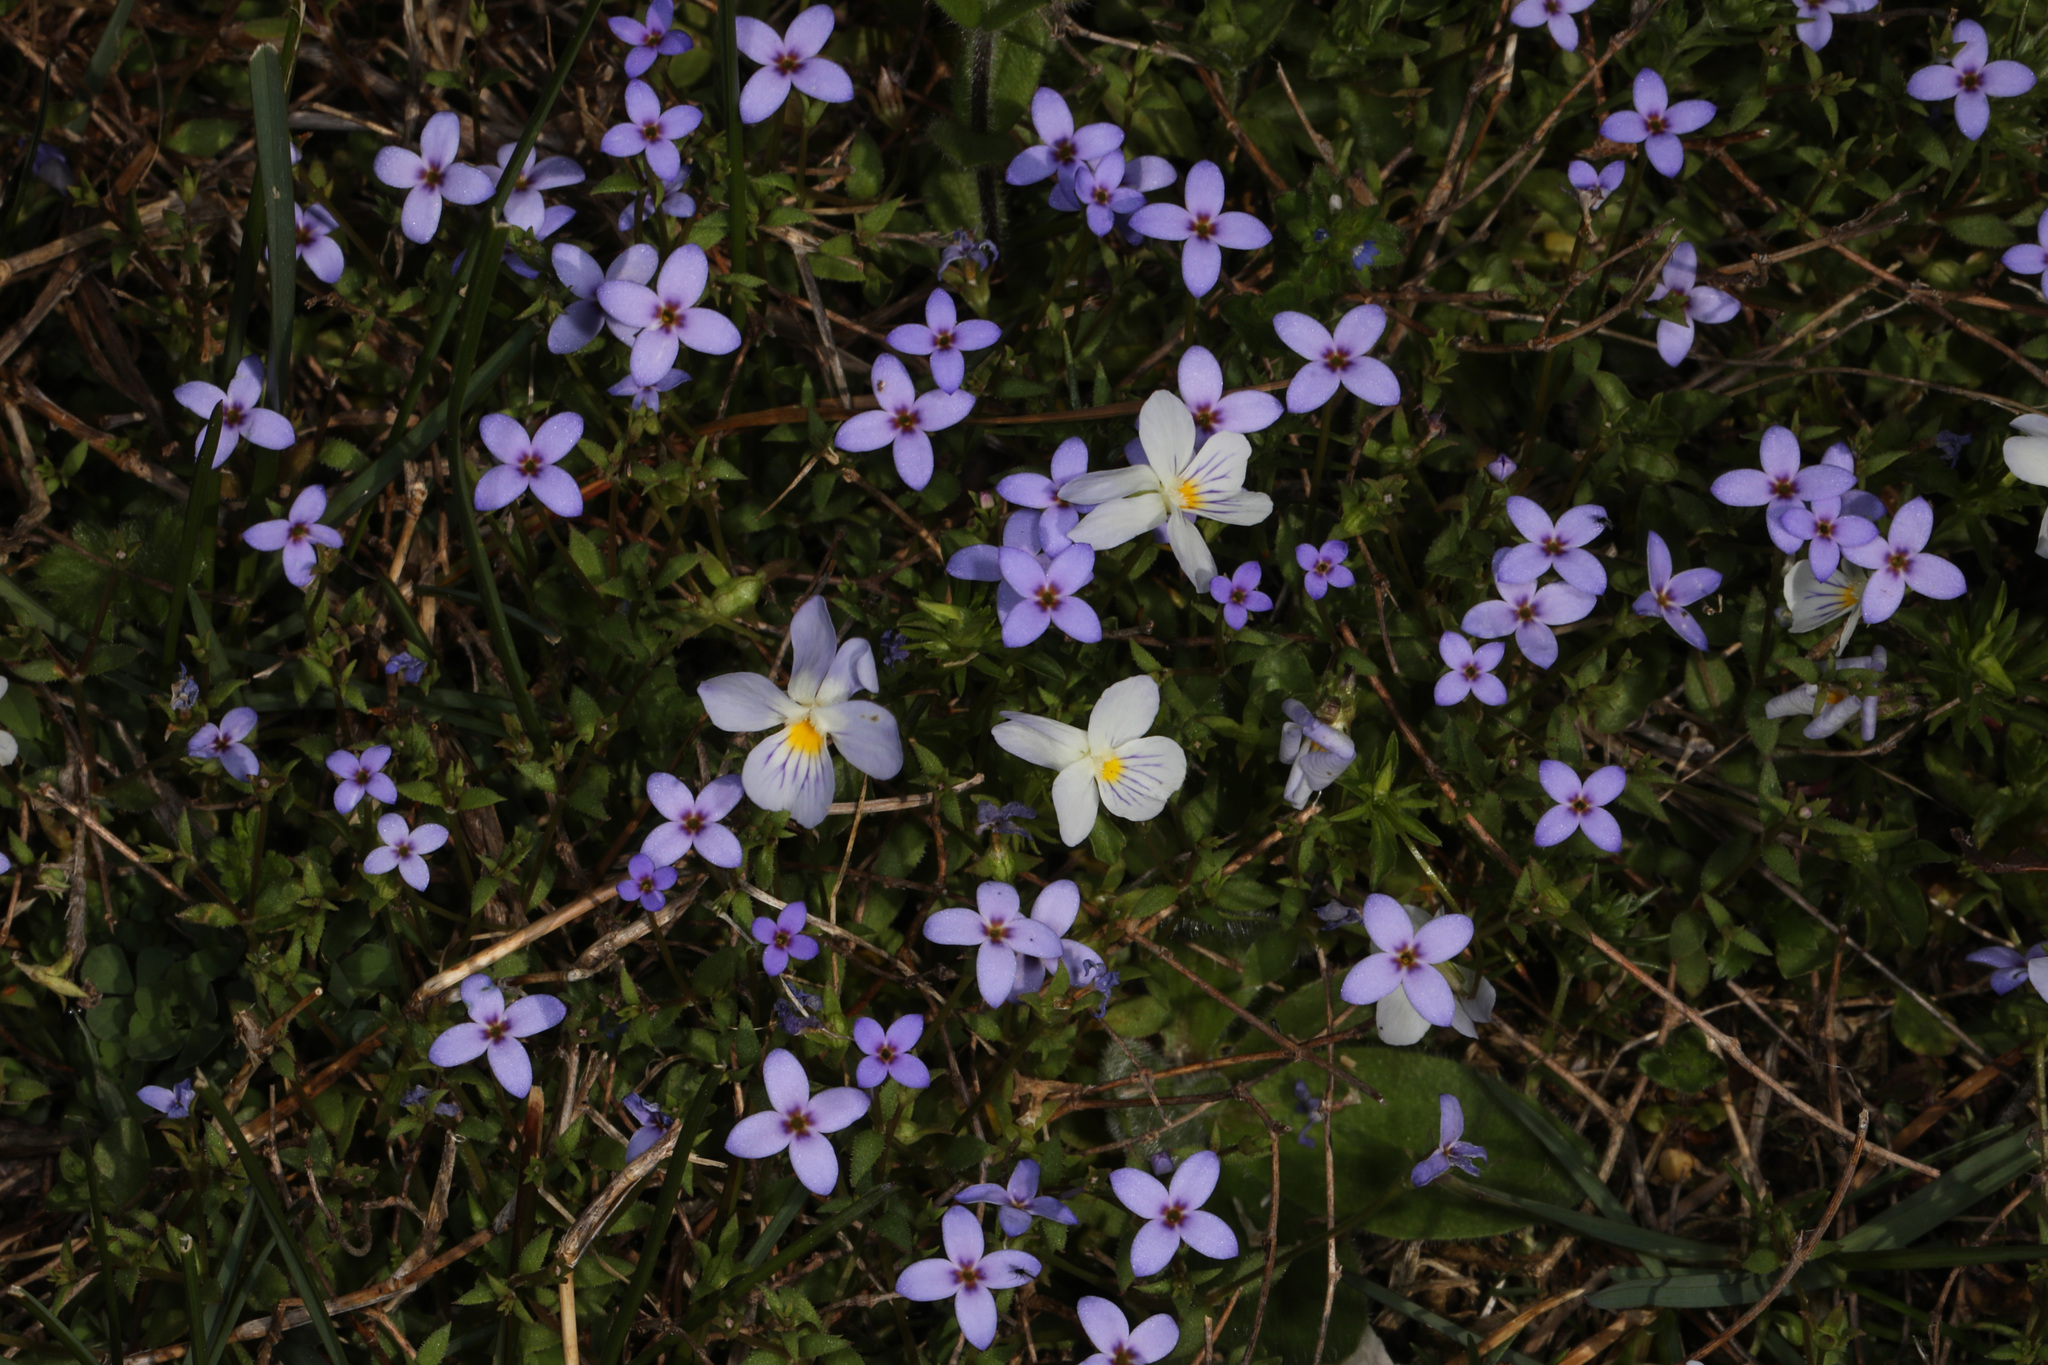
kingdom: Plantae
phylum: Tracheophyta
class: Magnoliopsida
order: Gentianales
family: Rubiaceae
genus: Houstonia
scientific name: Houstonia pusilla
